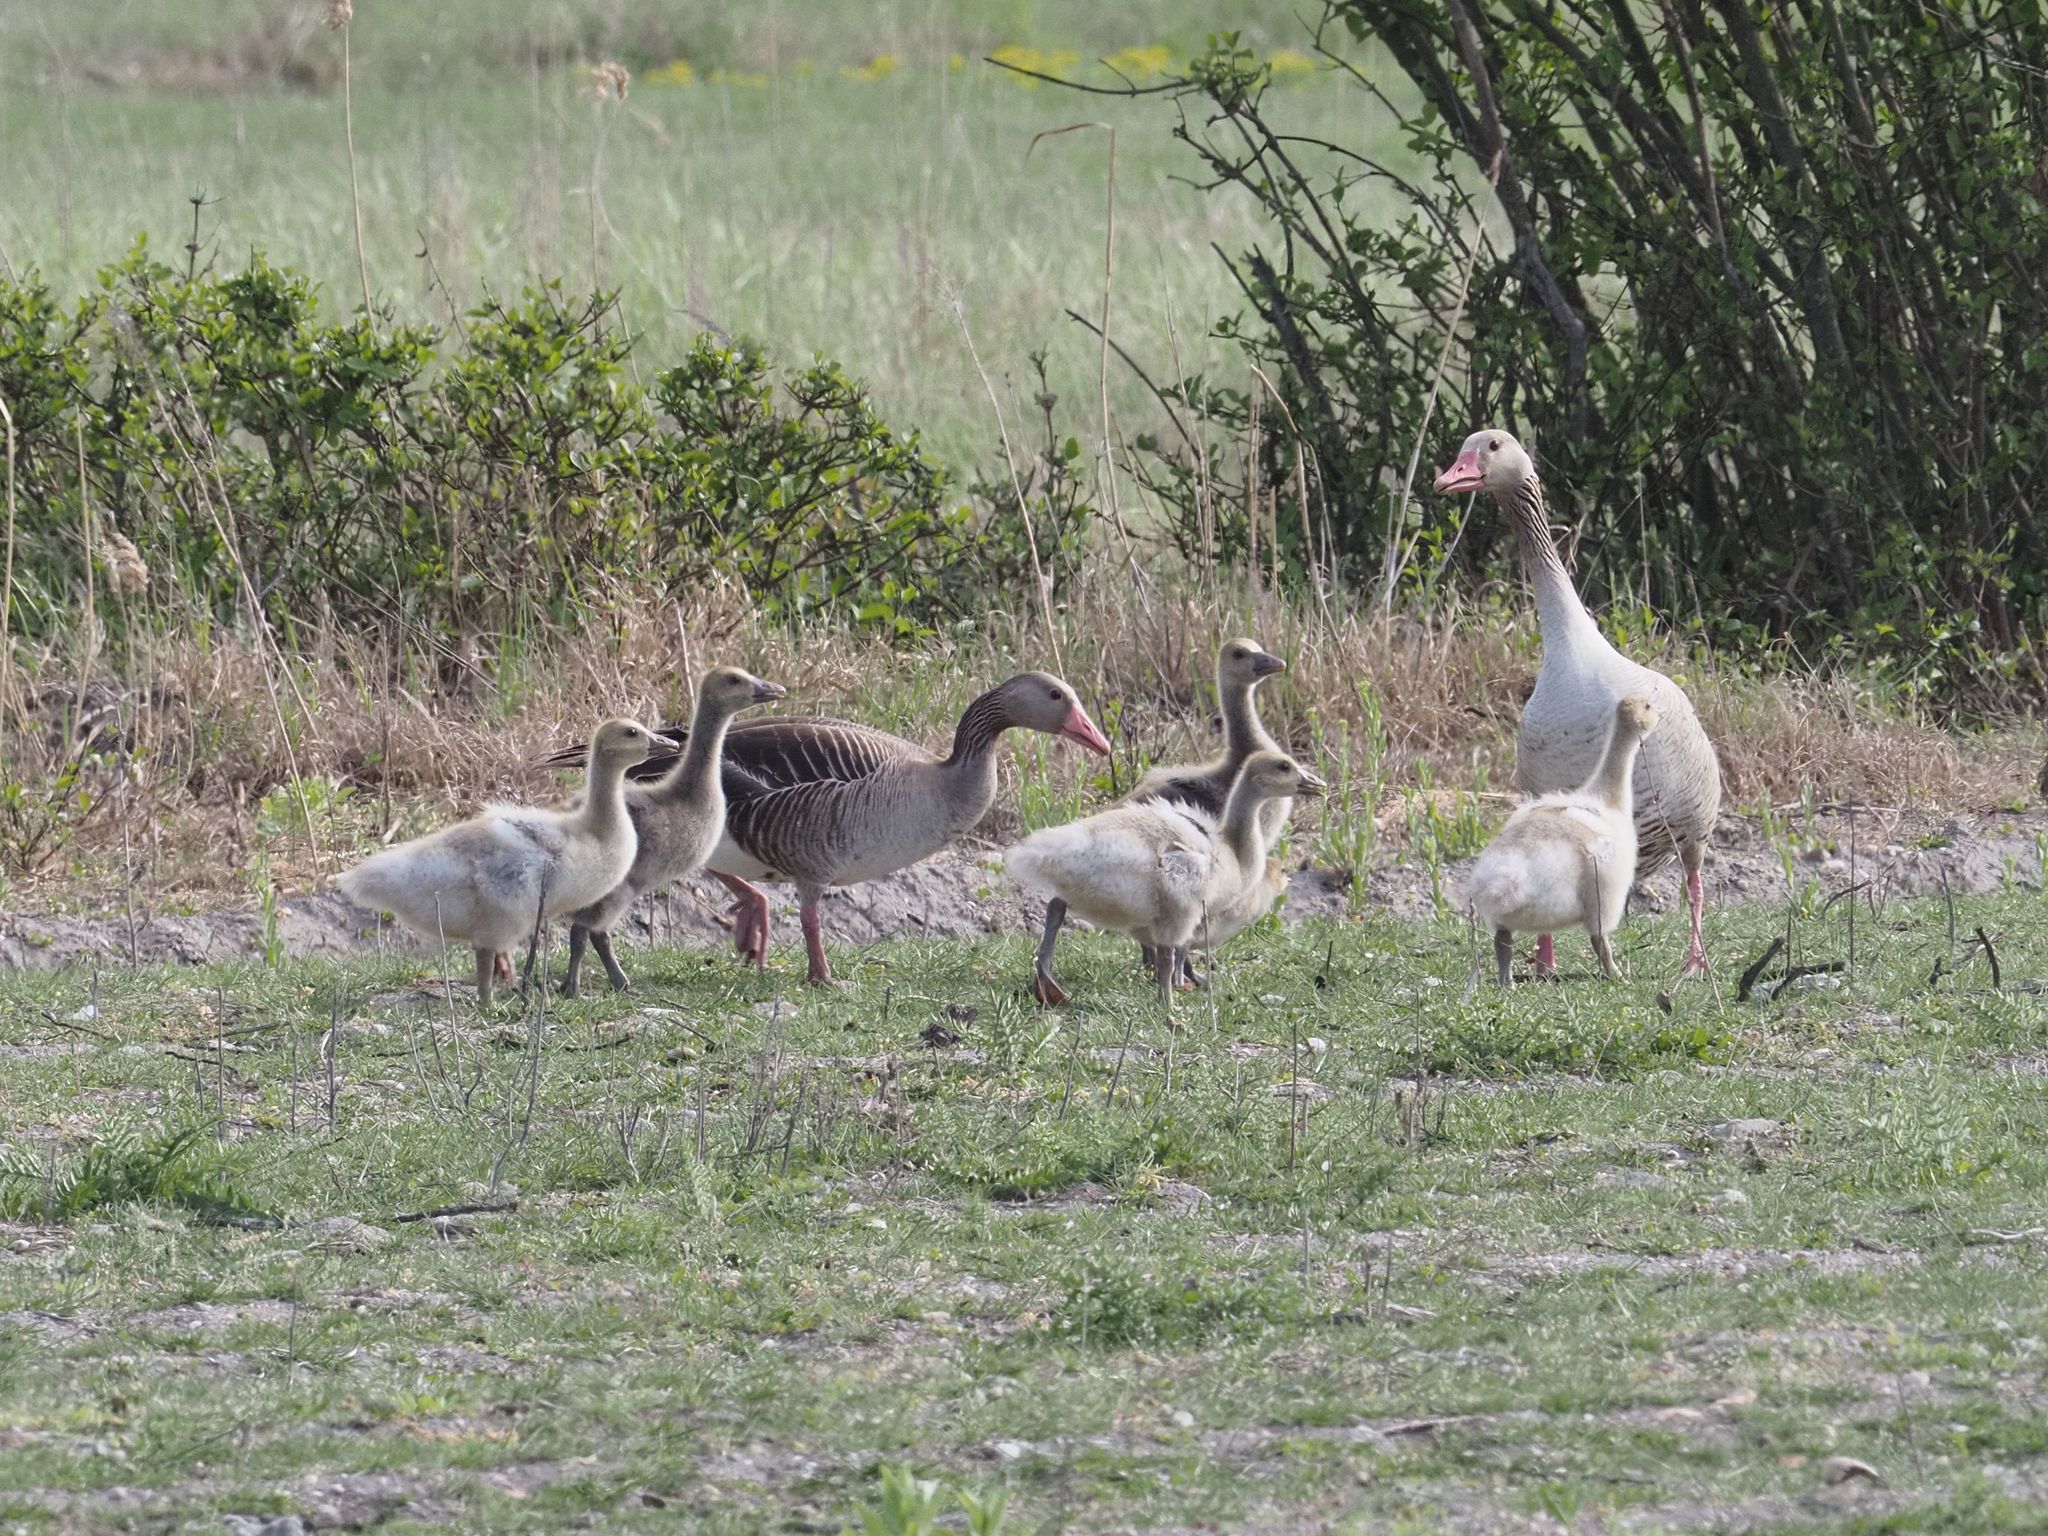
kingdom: Animalia
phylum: Chordata
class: Aves
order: Anseriformes
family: Anatidae
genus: Anser
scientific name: Anser anser
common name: Greylag goose
